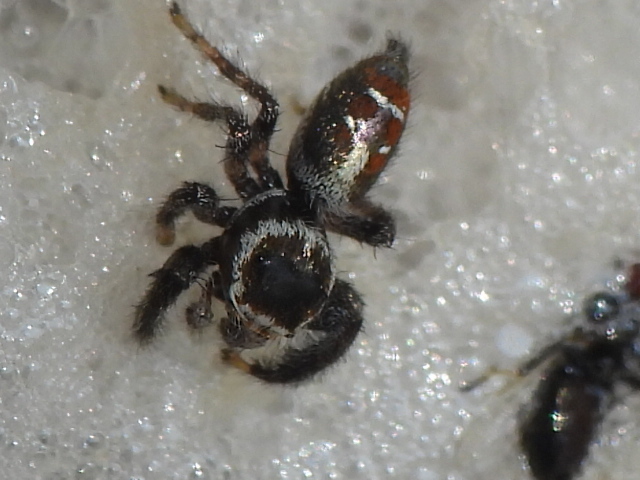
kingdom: Animalia
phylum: Arthropoda
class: Arachnida
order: Araneae
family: Salticidae
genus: Thyene
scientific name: Thyene imperialis
